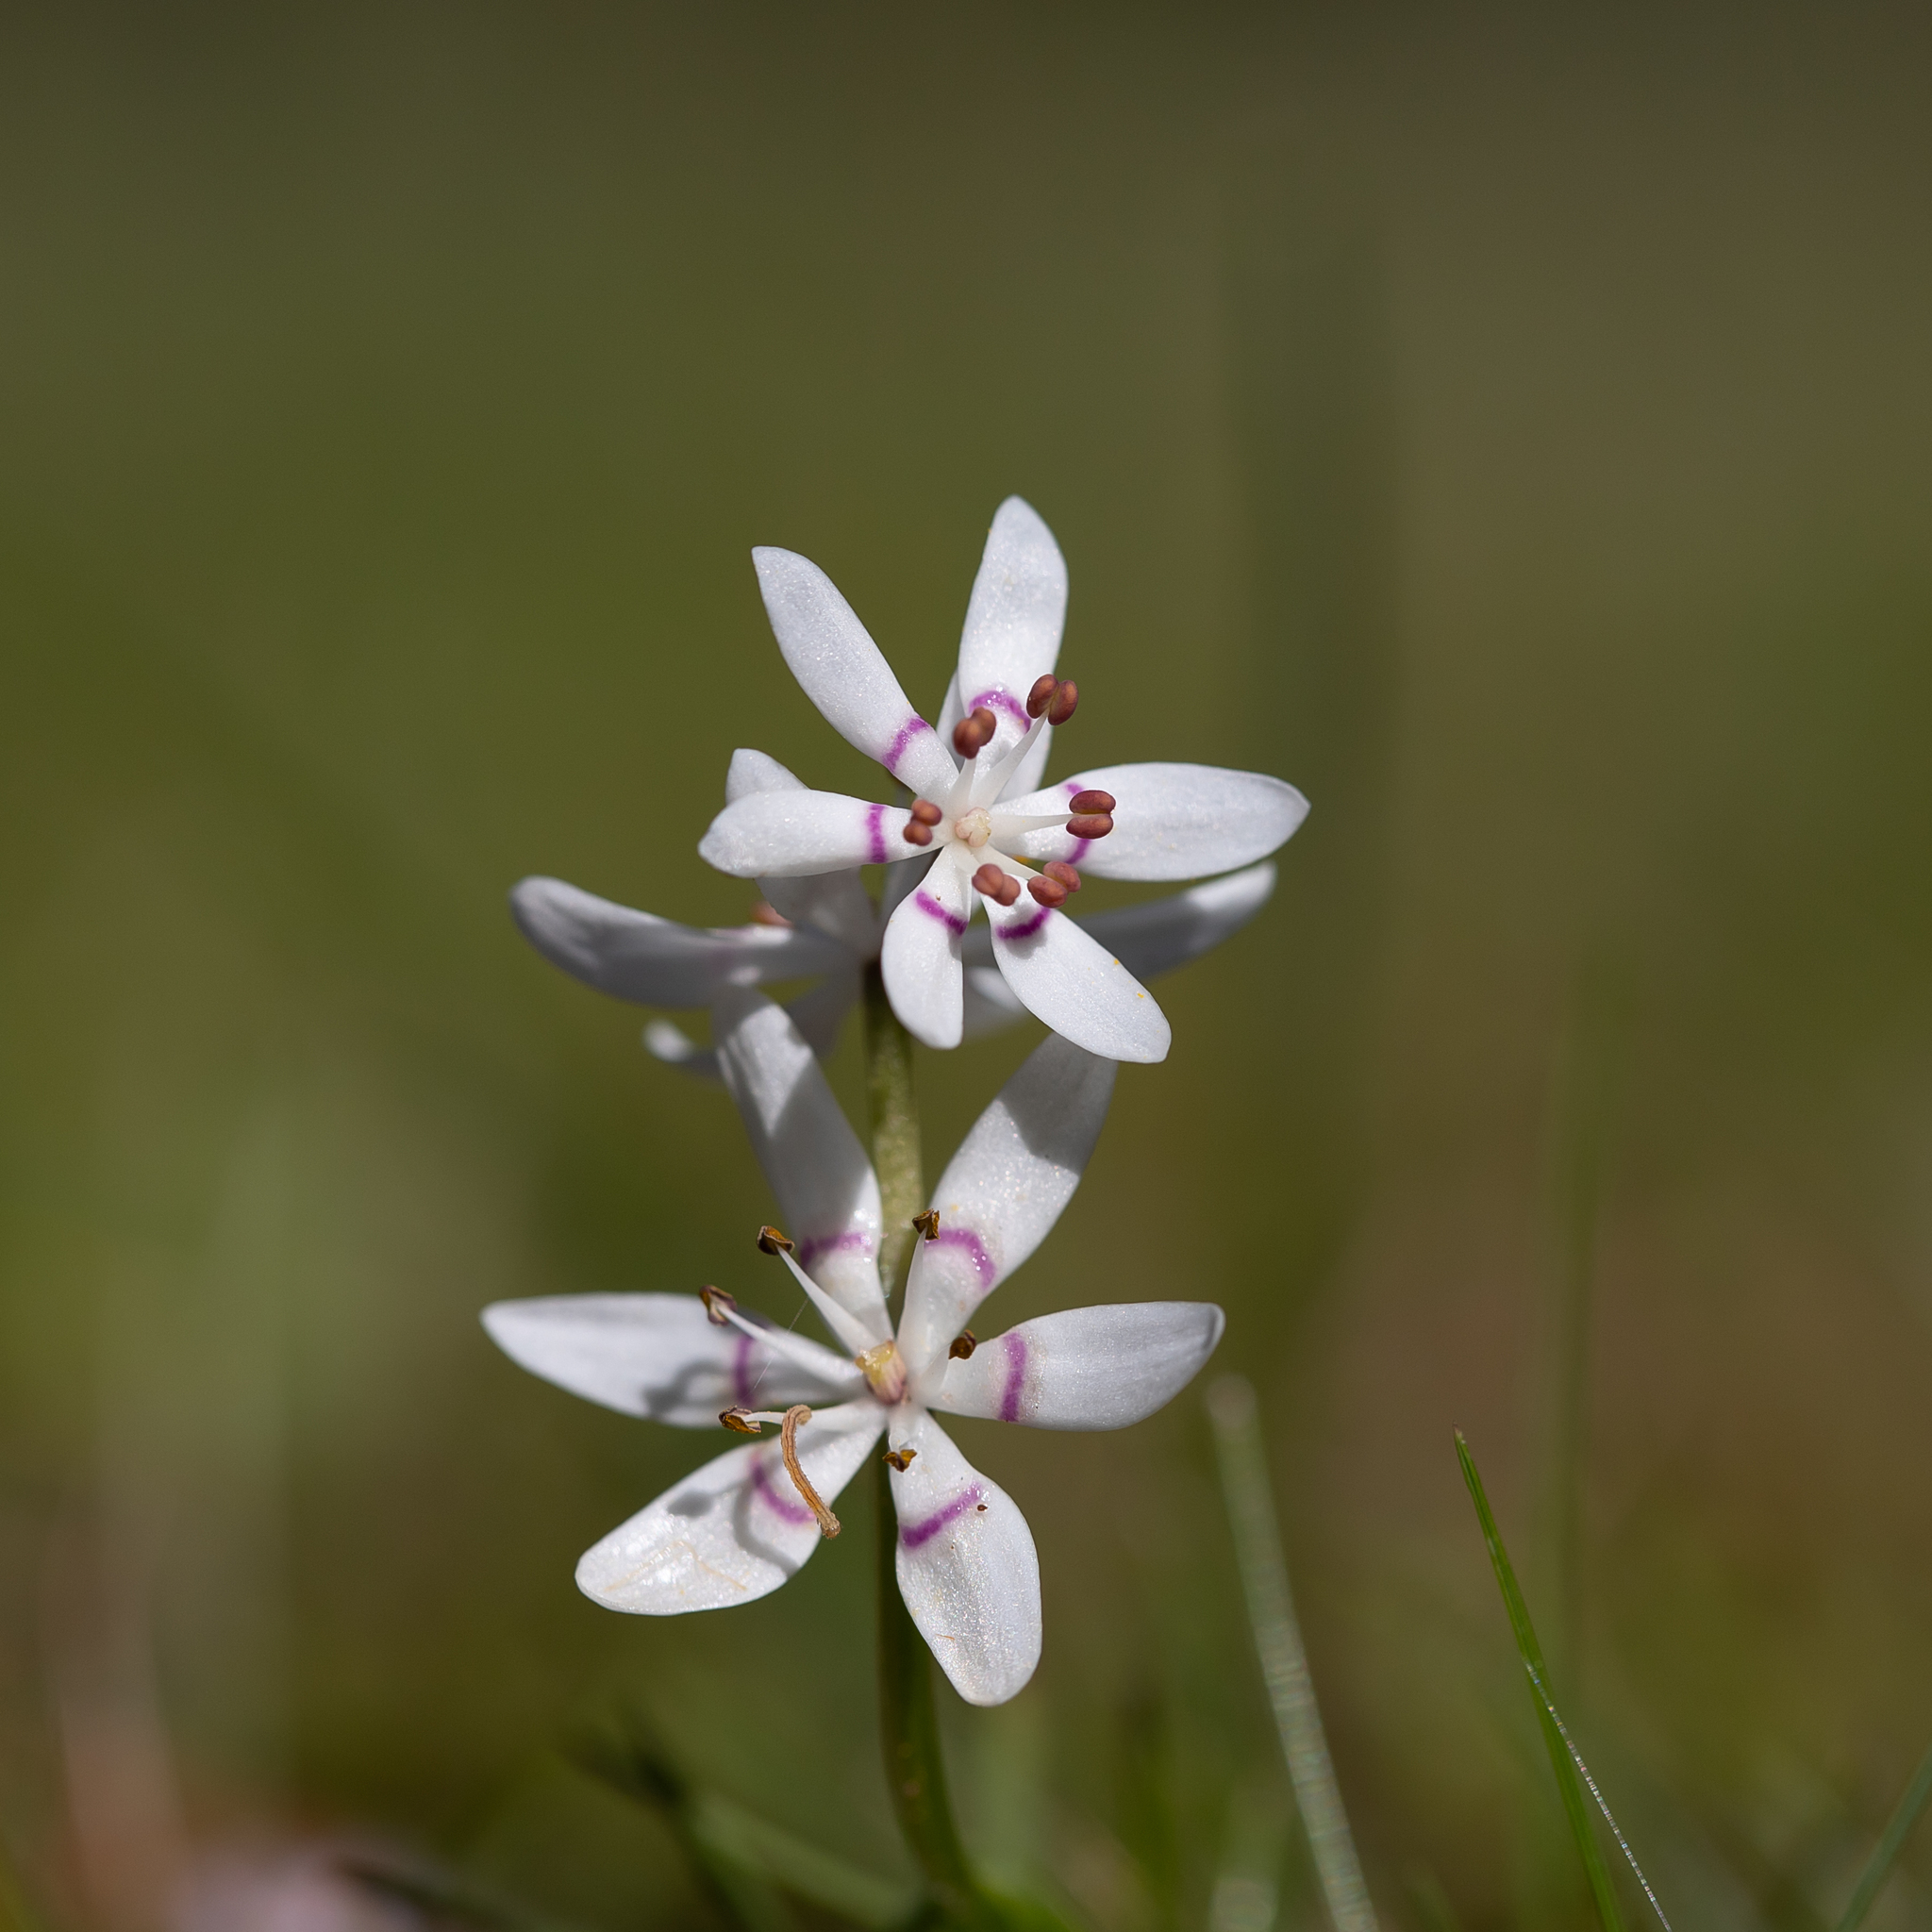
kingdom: Plantae
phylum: Tracheophyta
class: Liliopsida
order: Liliales
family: Colchicaceae
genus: Wurmbea
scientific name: Wurmbea dioica
